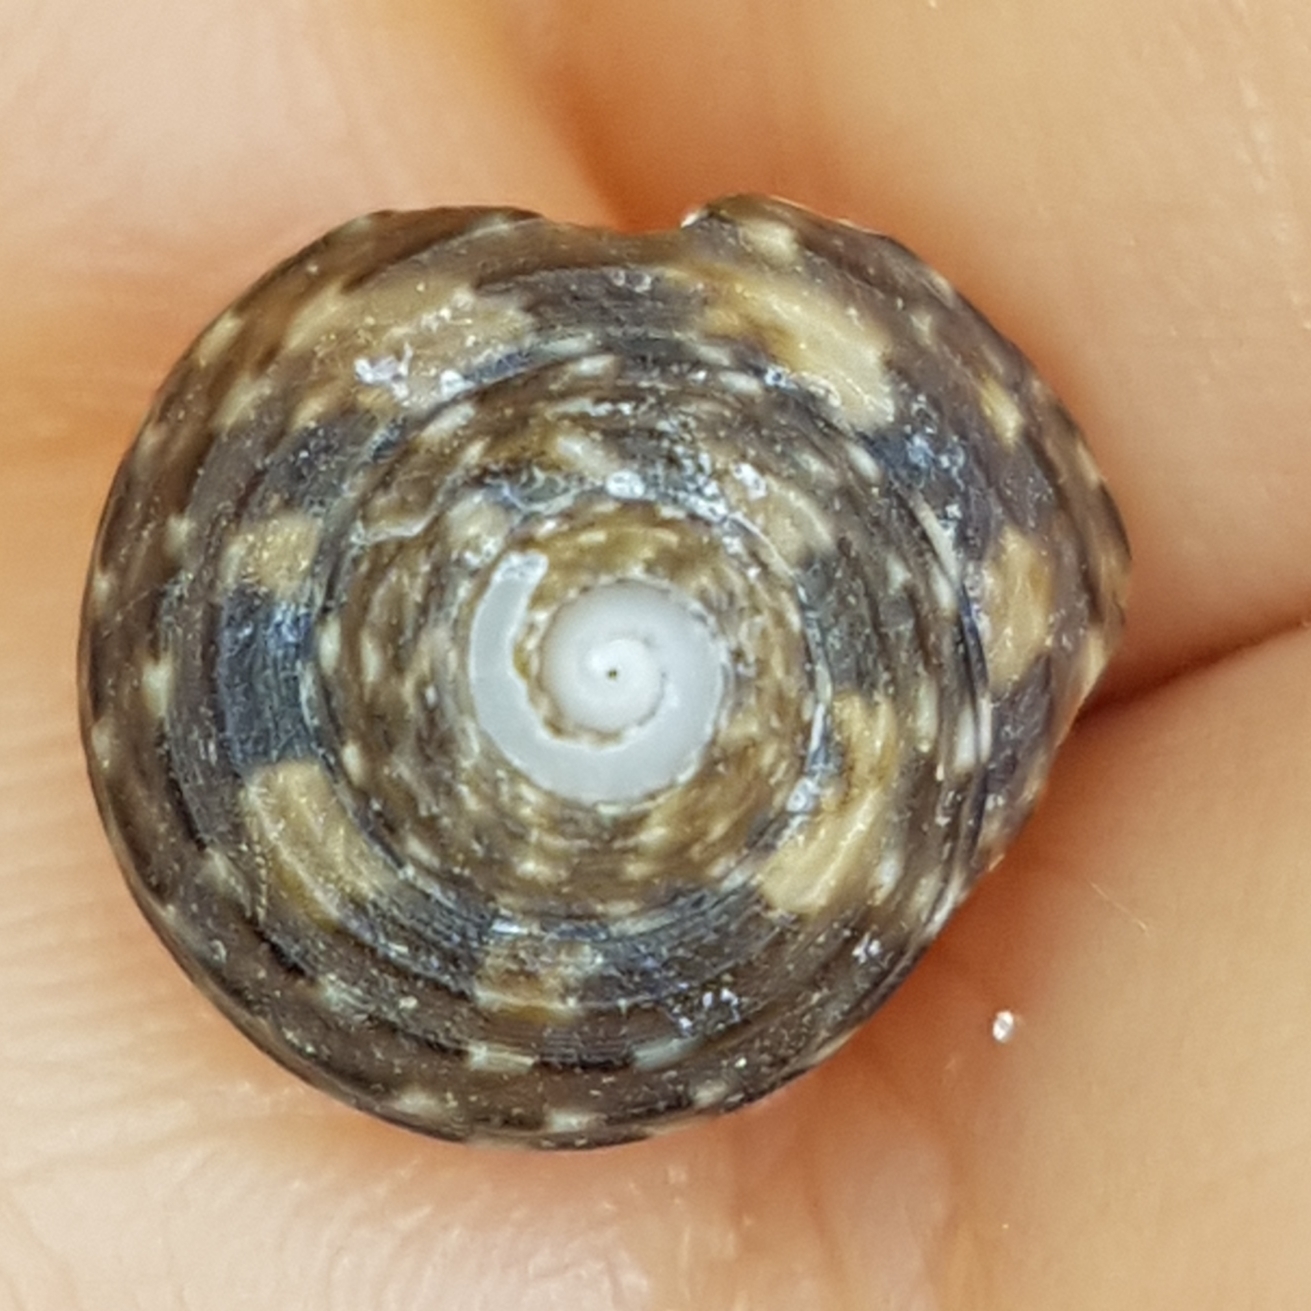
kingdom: Animalia
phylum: Mollusca
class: Gastropoda
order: Trochida
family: Trochidae
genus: Clanculus
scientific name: Clanculus jussieui
